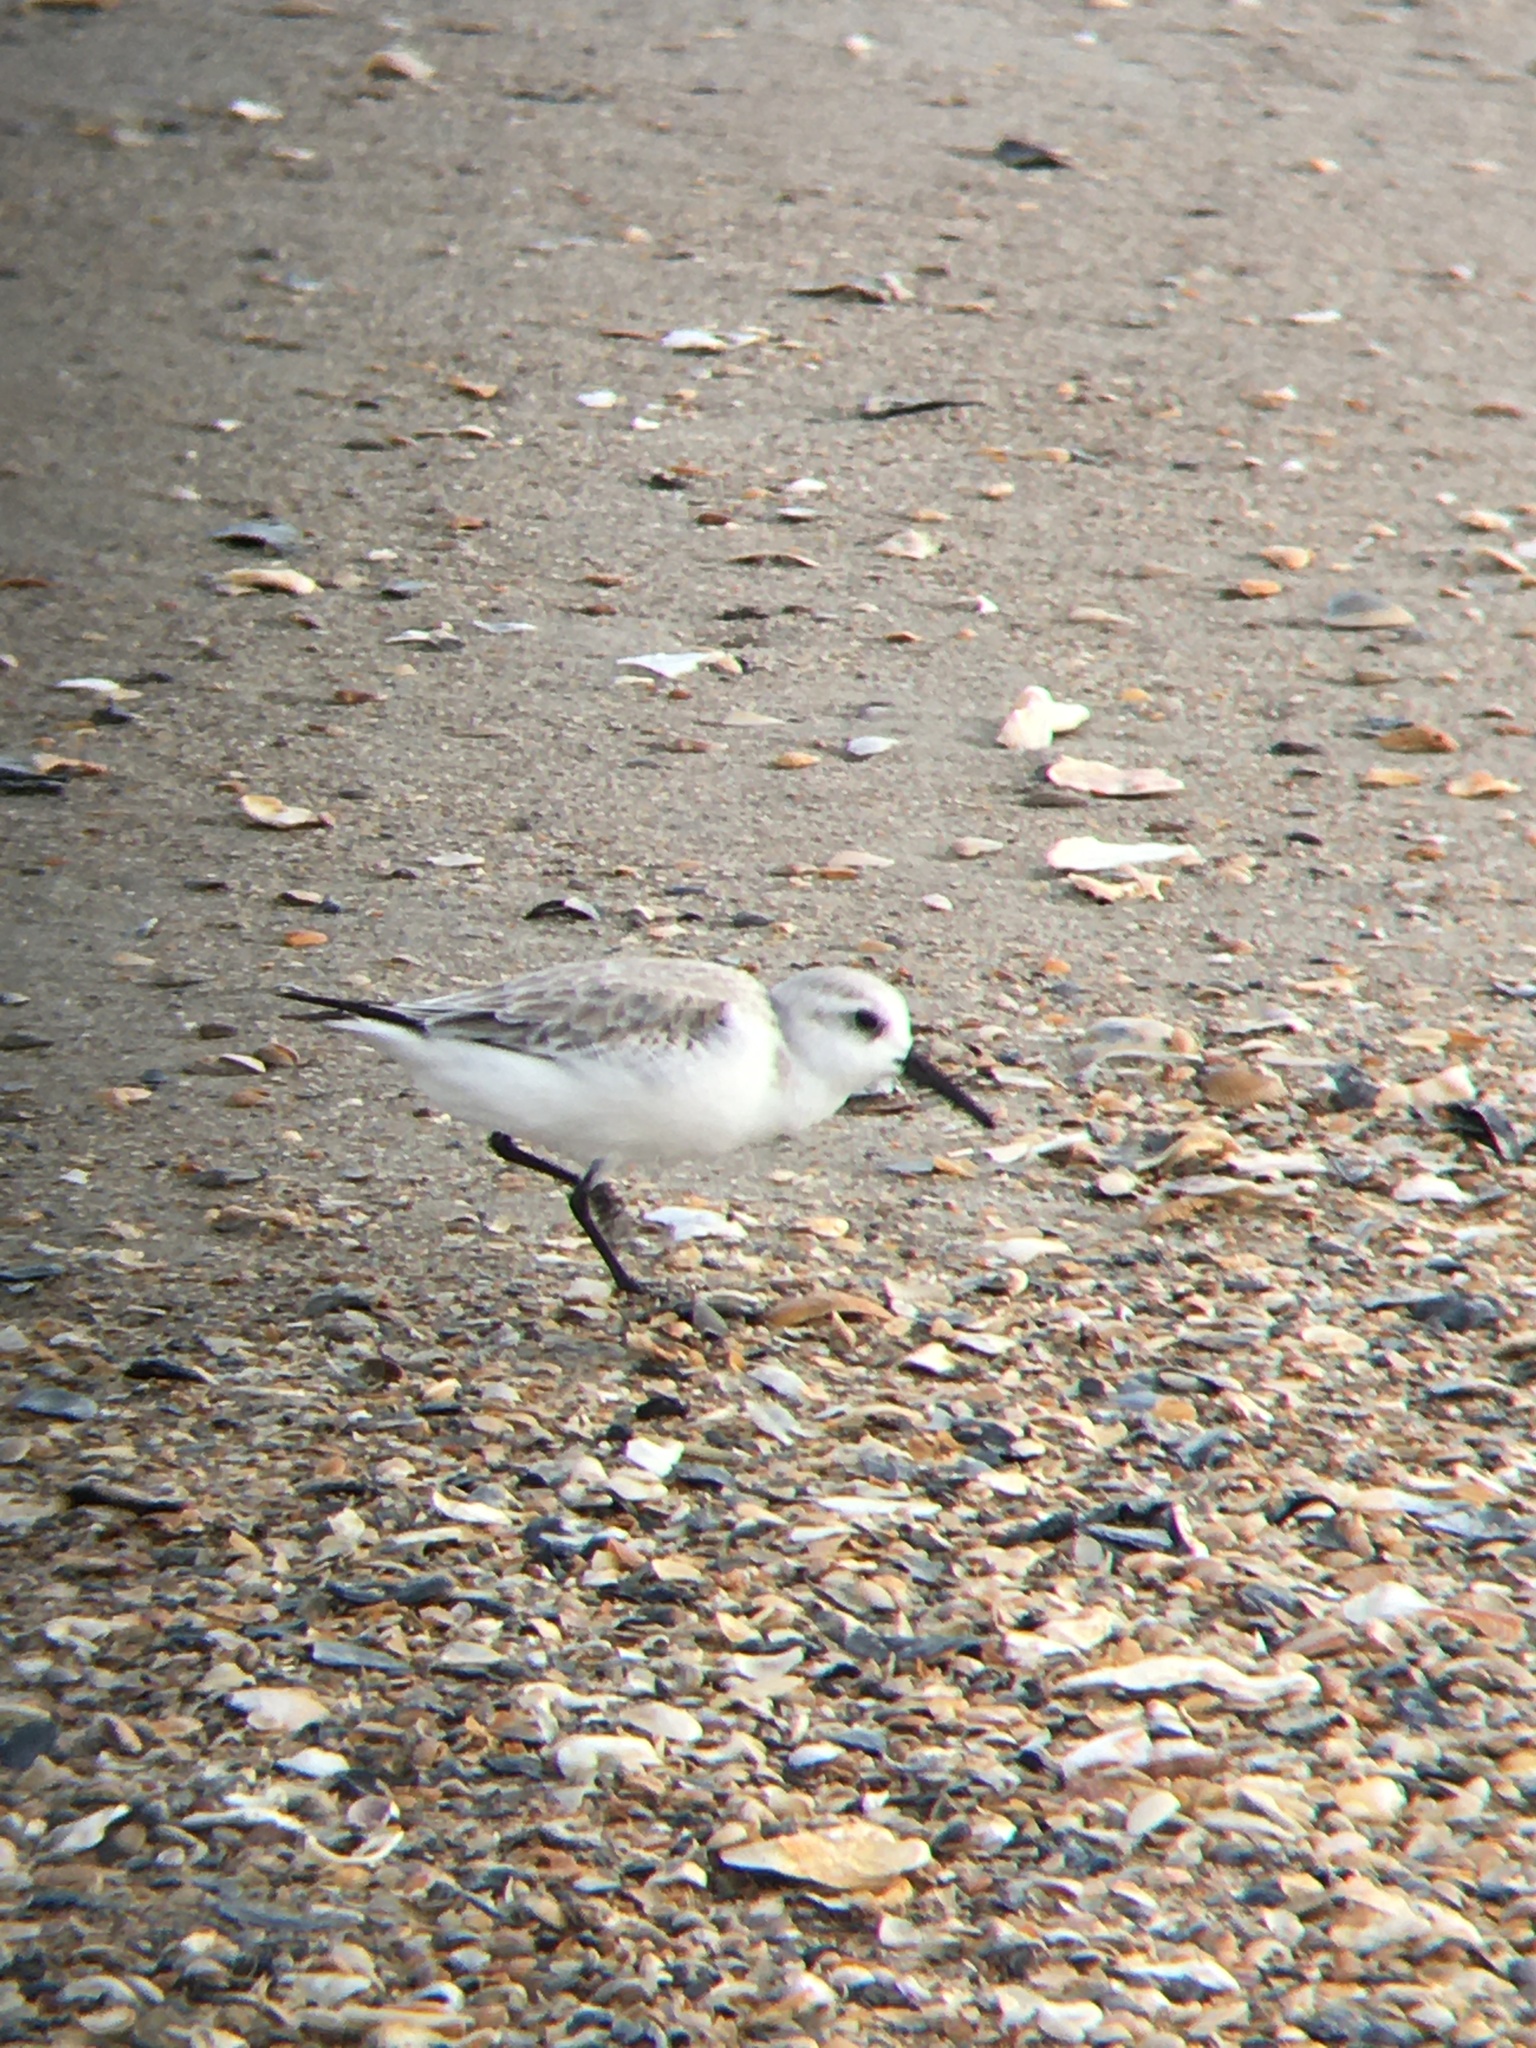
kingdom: Animalia
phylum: Chordata
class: Aves
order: Charadriiformes
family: Scolopacidae
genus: Calidris
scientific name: Calidris alba
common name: Sanderling
